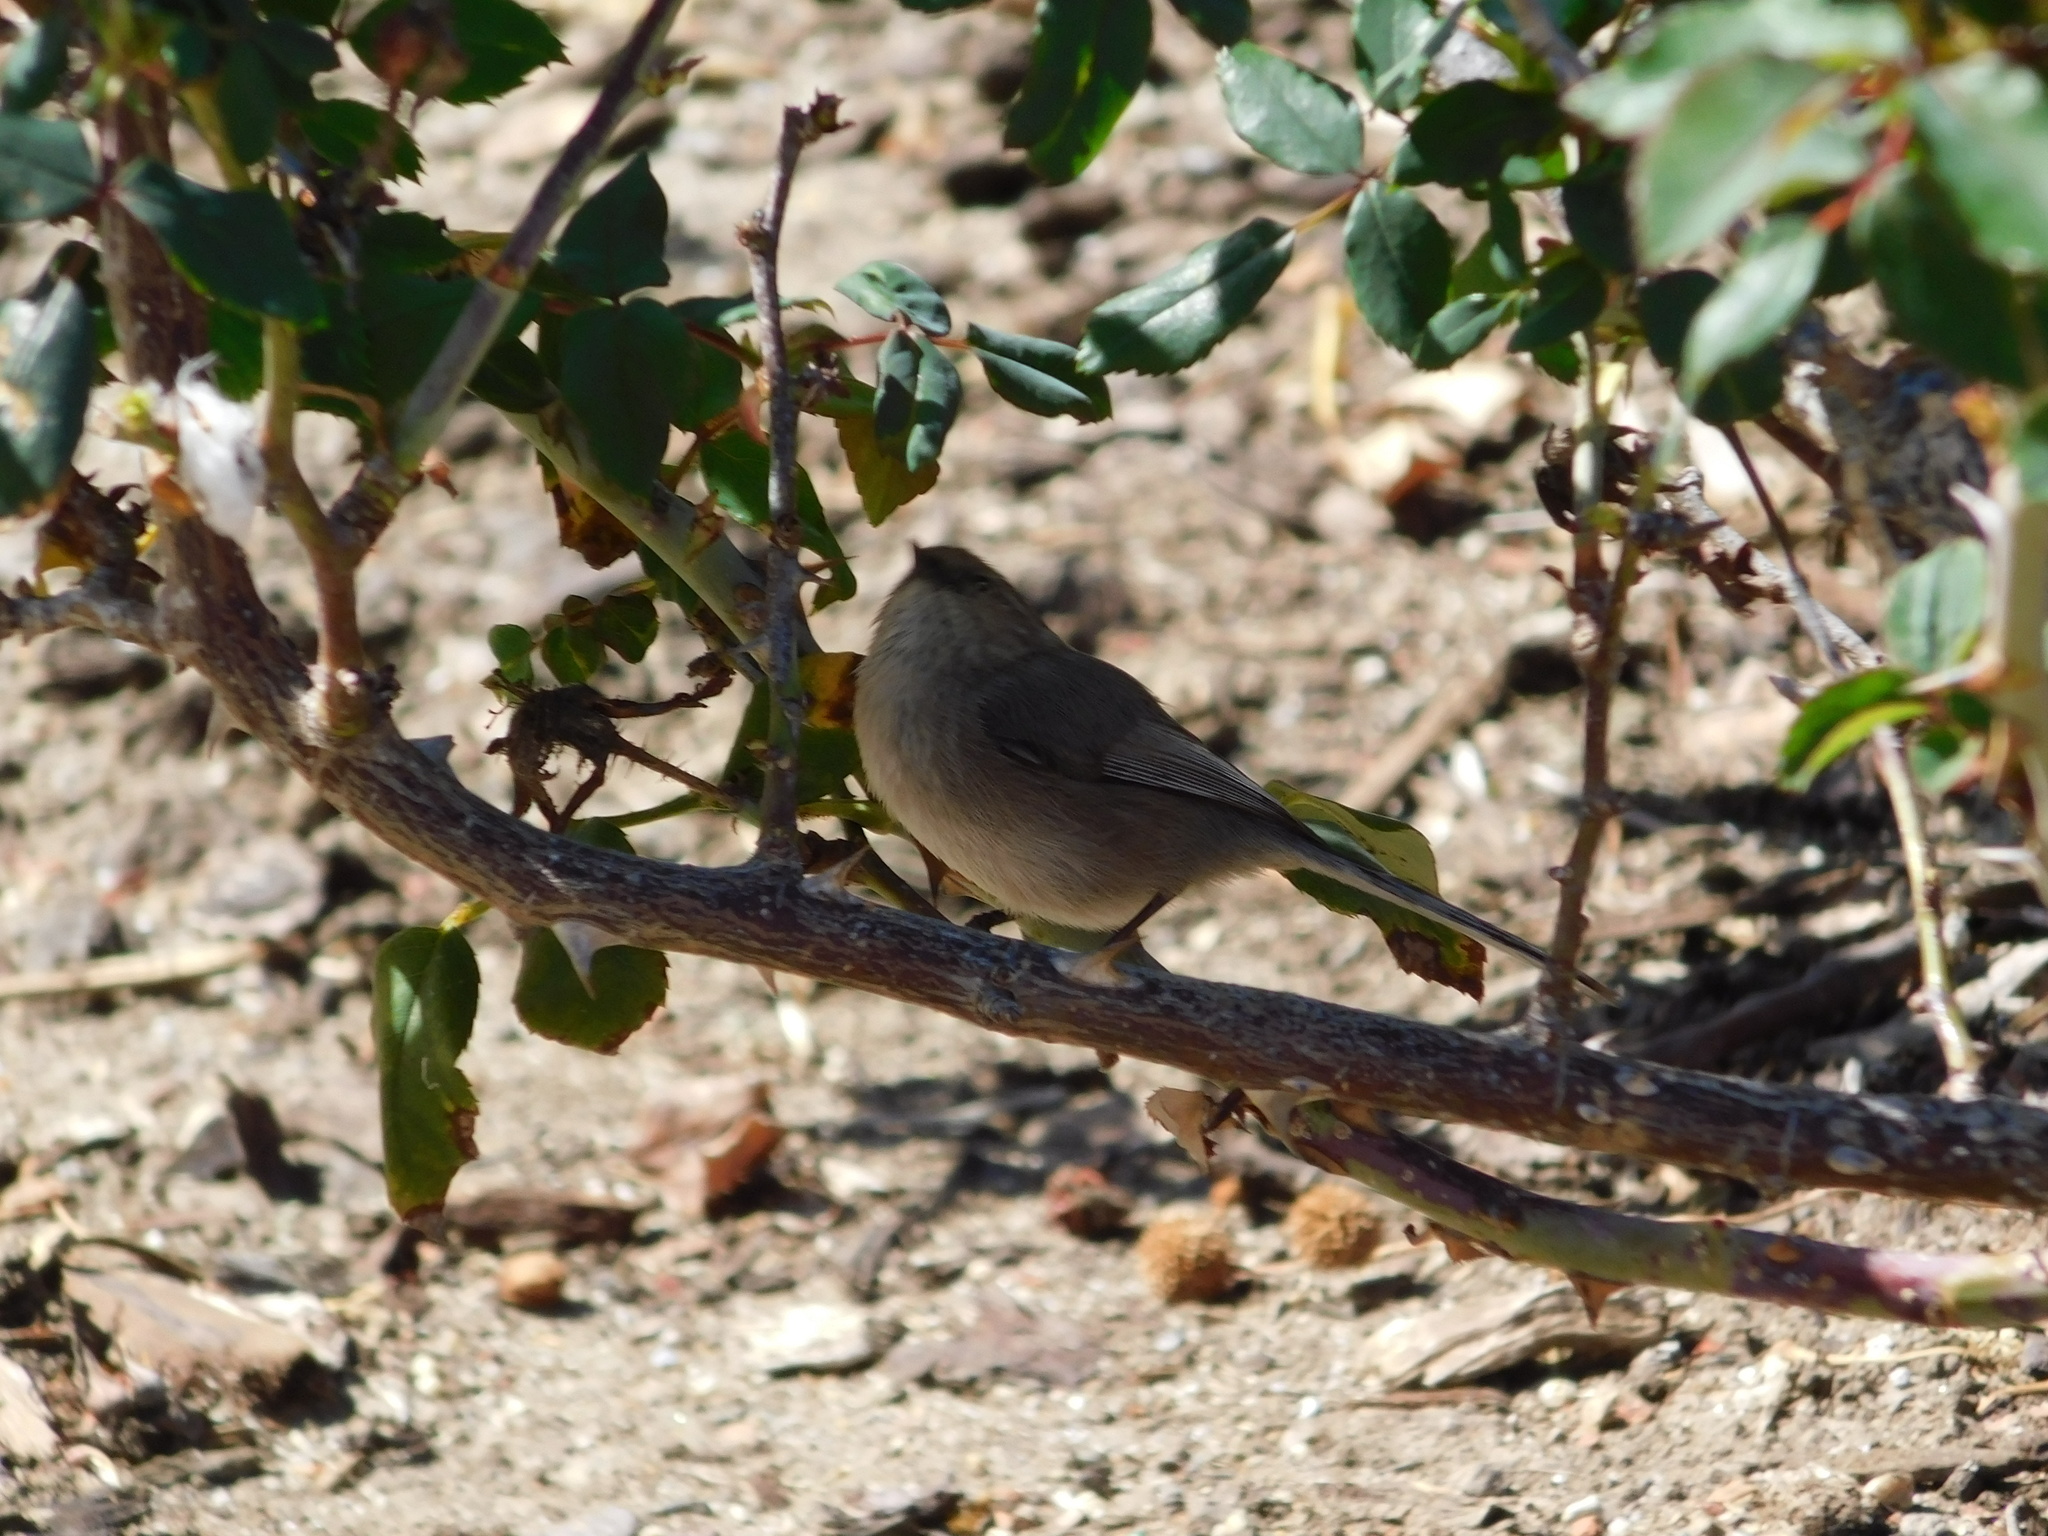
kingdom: Animalia
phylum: Chordata
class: Aves
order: Passeriformes
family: Aegithalidae
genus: Psaltriparus
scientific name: Psaltriparus minimus
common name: American bushtit
